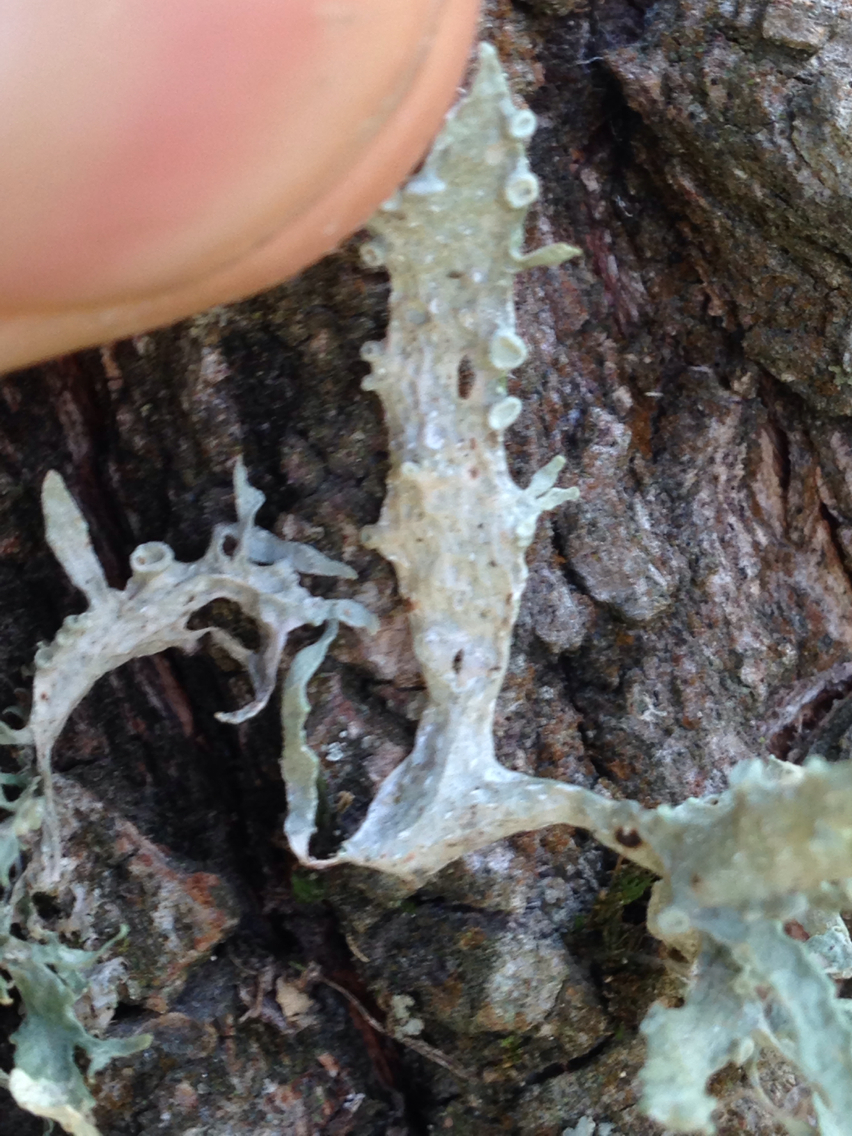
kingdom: Fungi
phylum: Ascomycota
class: Lecanoromycetes
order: Lecanorales
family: Ramalinaceae
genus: Ramalina
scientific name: Ramalina leptocarpha
